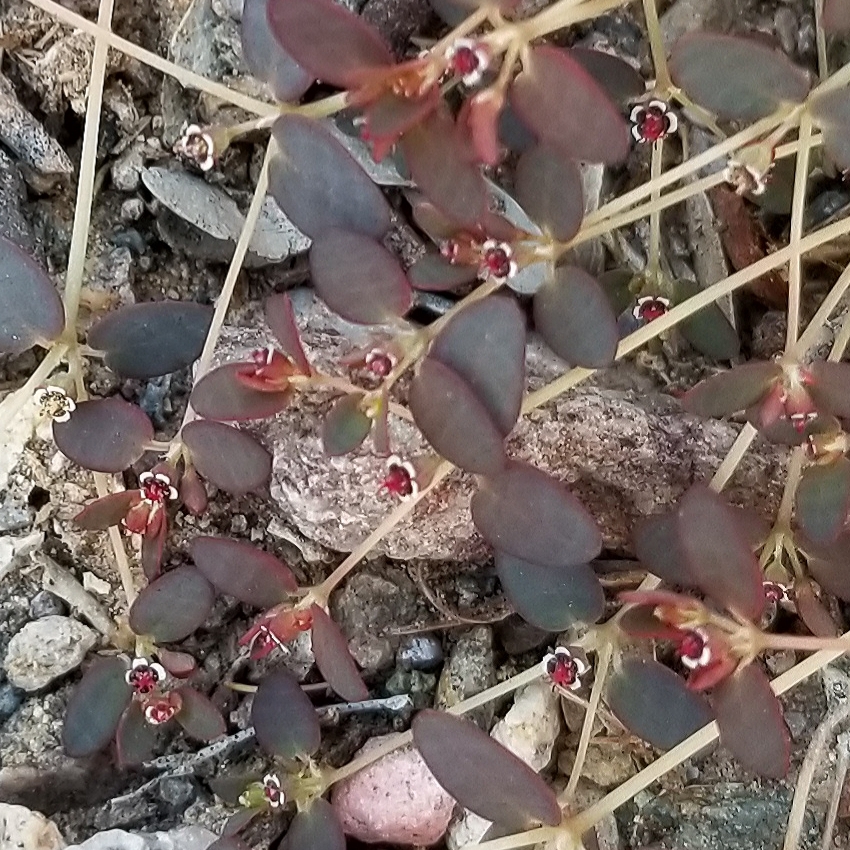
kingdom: Plantae
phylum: Tracheophyta
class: Magnoliopsida
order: Malpighiales
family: Euphorbiaceae
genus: Euphorbia
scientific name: Euphorbia polycarpa
